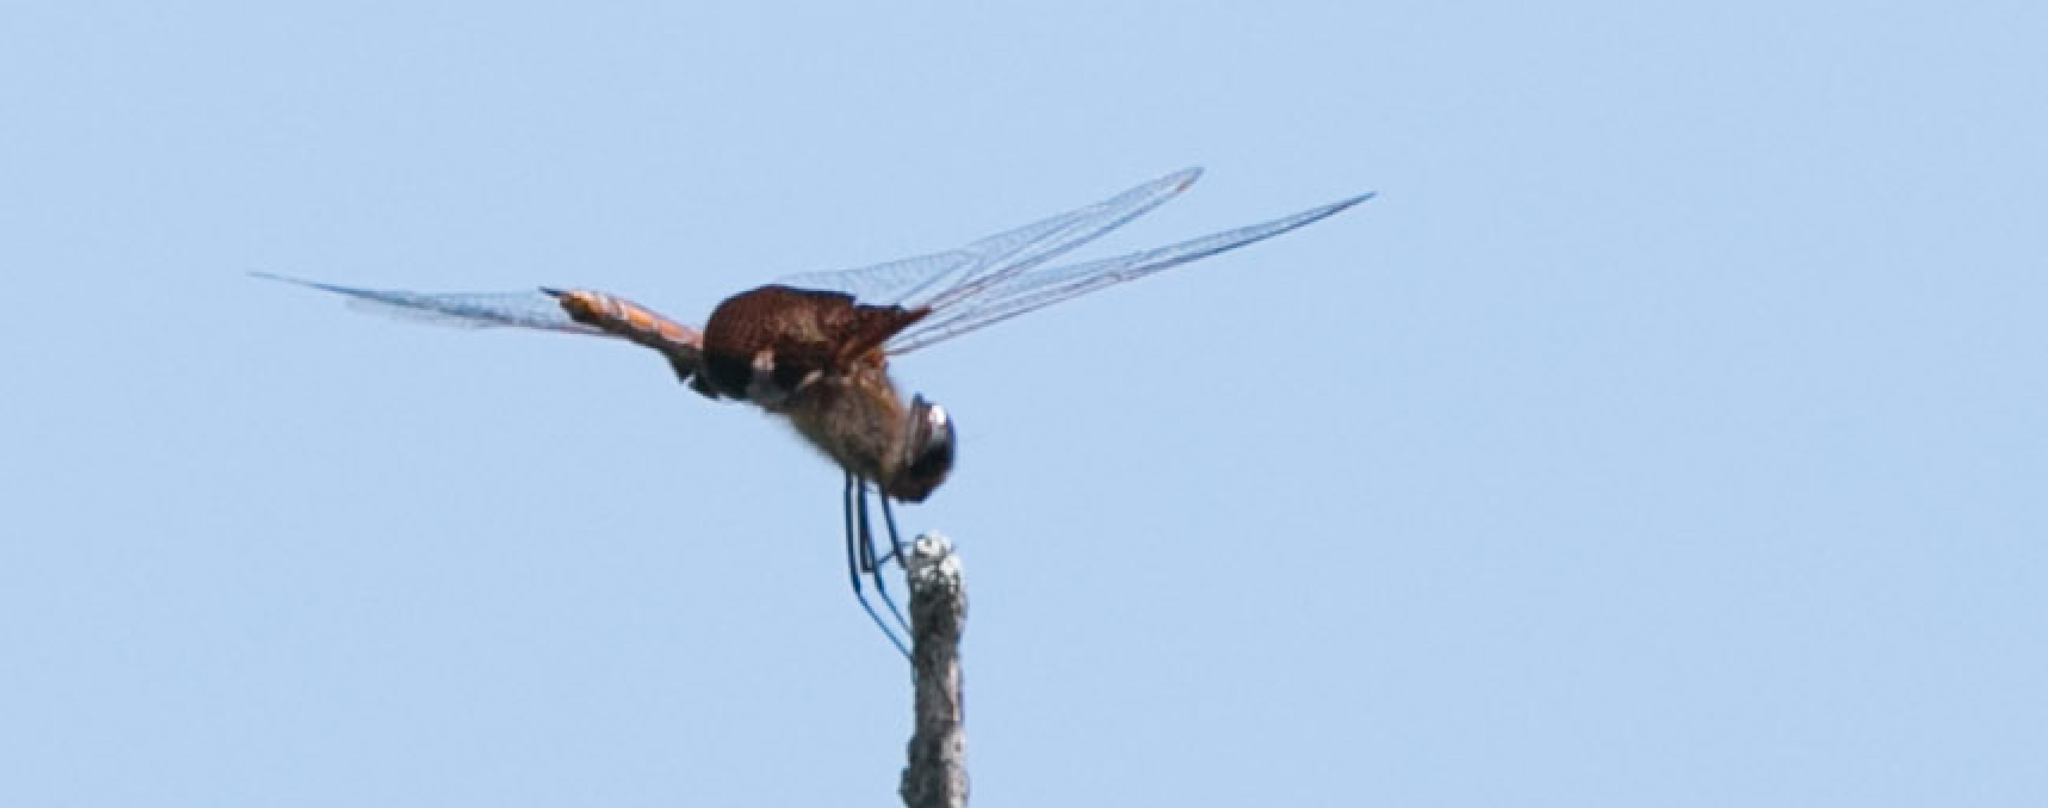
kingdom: Animalia
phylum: Arthropoda
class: Insecta
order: Odonata
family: Libellulidae
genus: Tramea
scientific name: Tramea carolina
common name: Carolina saddlebags
